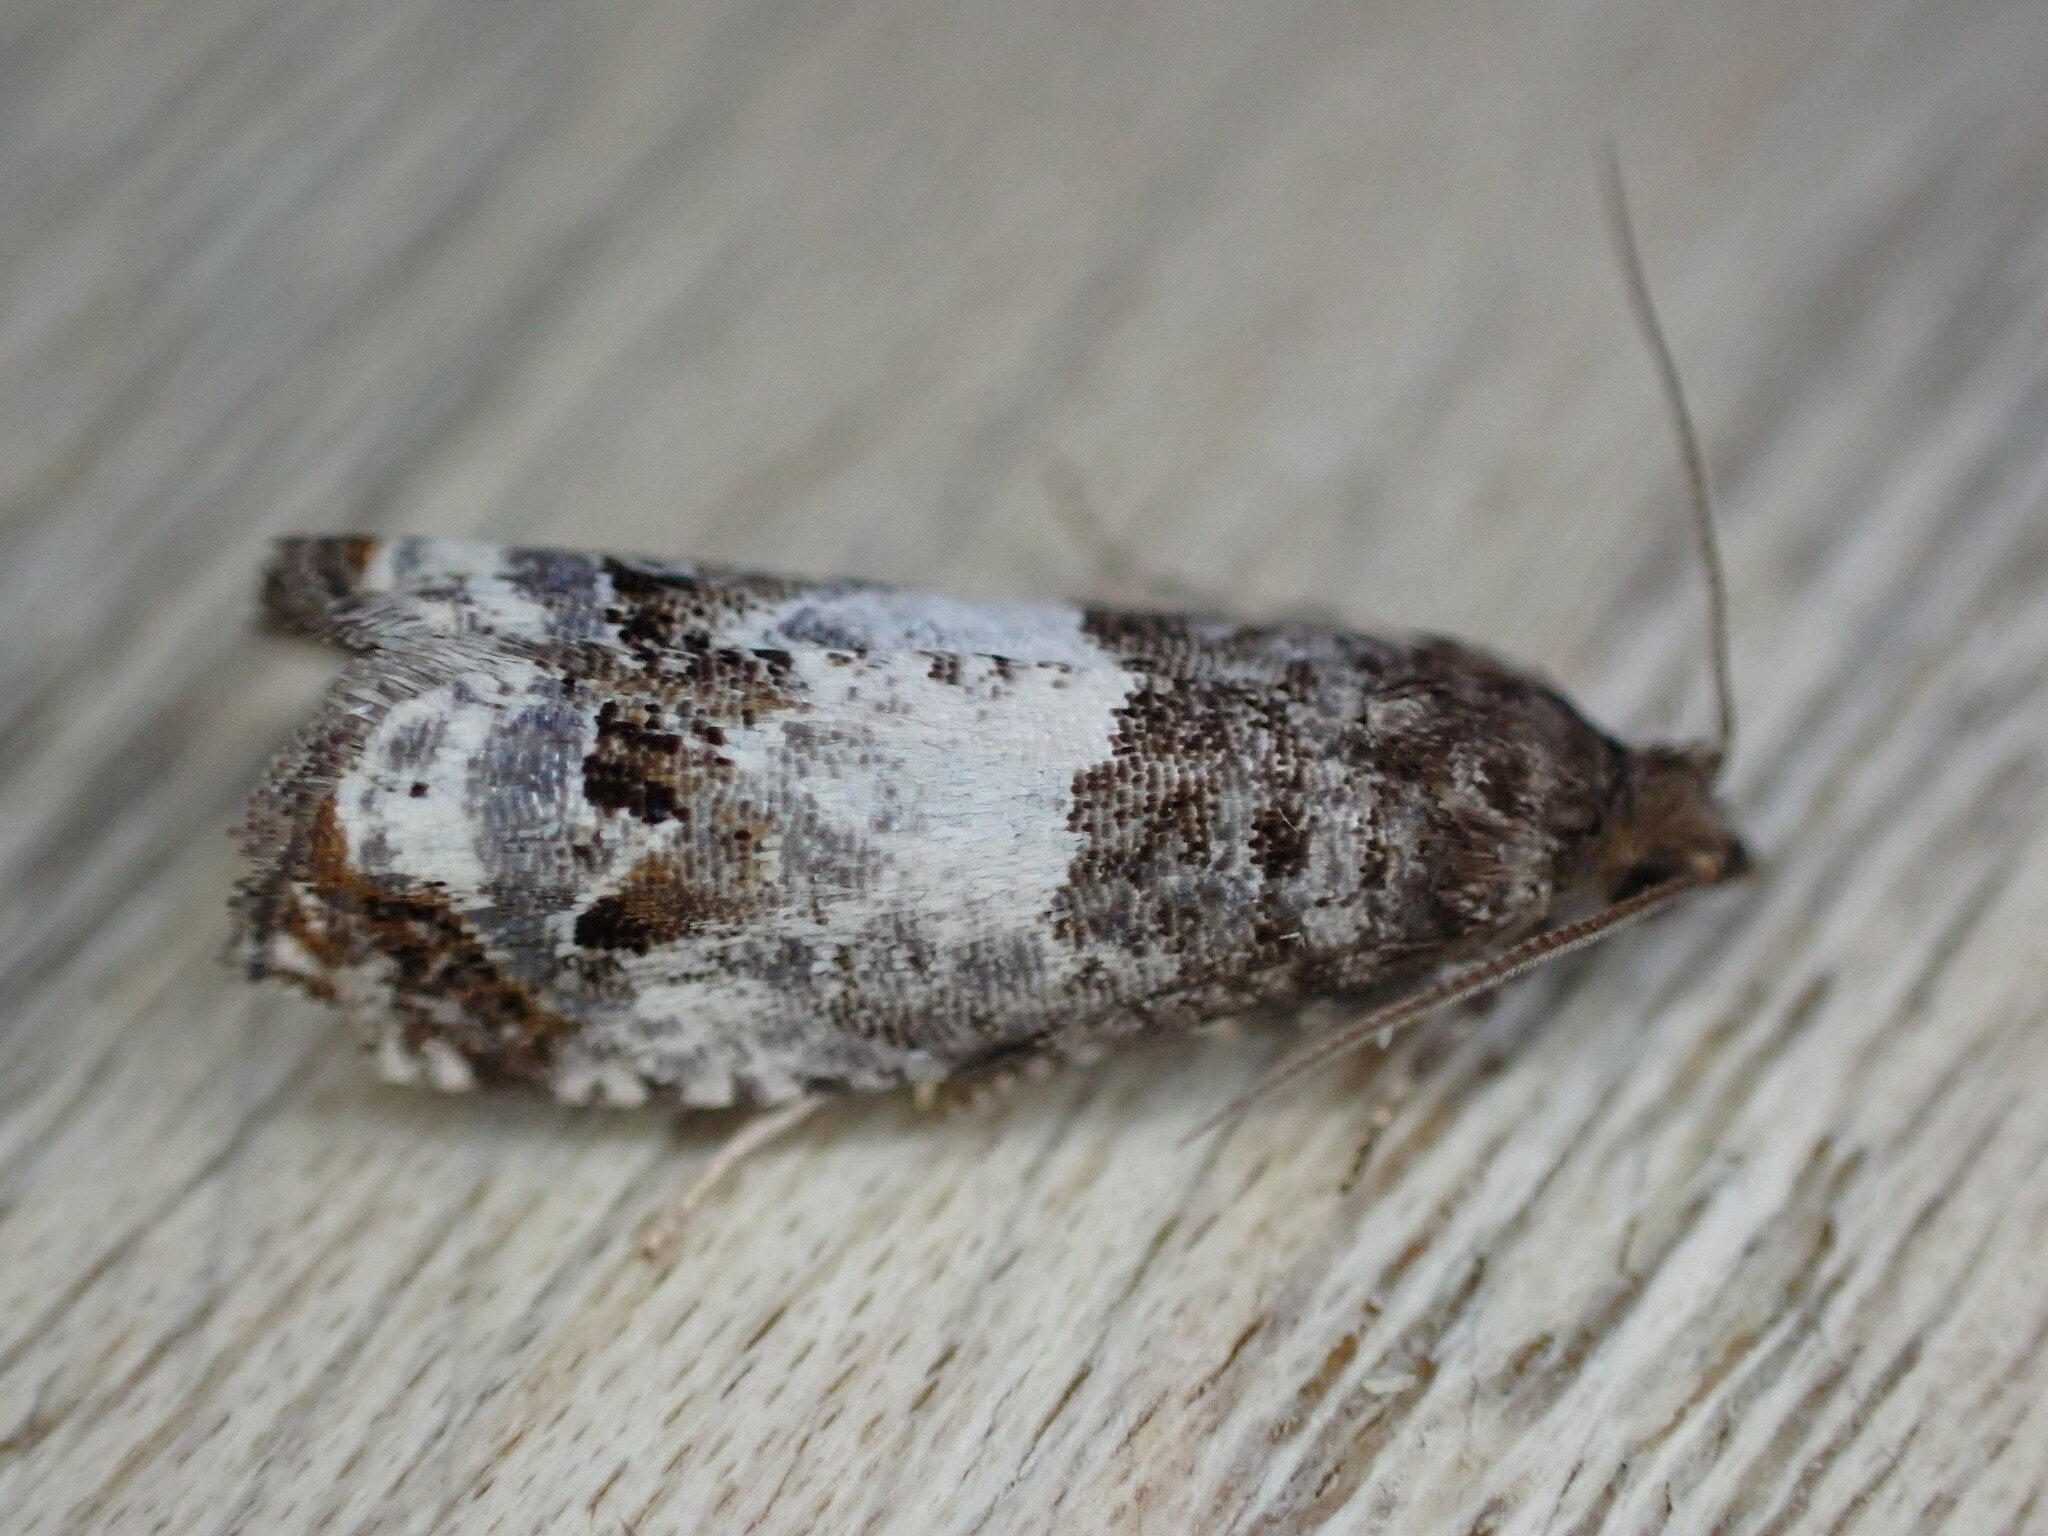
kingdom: Animalia
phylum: Arthropoda
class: Insecta
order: Lepidoptera
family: Tortricidae
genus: Notocelia
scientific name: Notocelia rosaecolana
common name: Common rose bell
